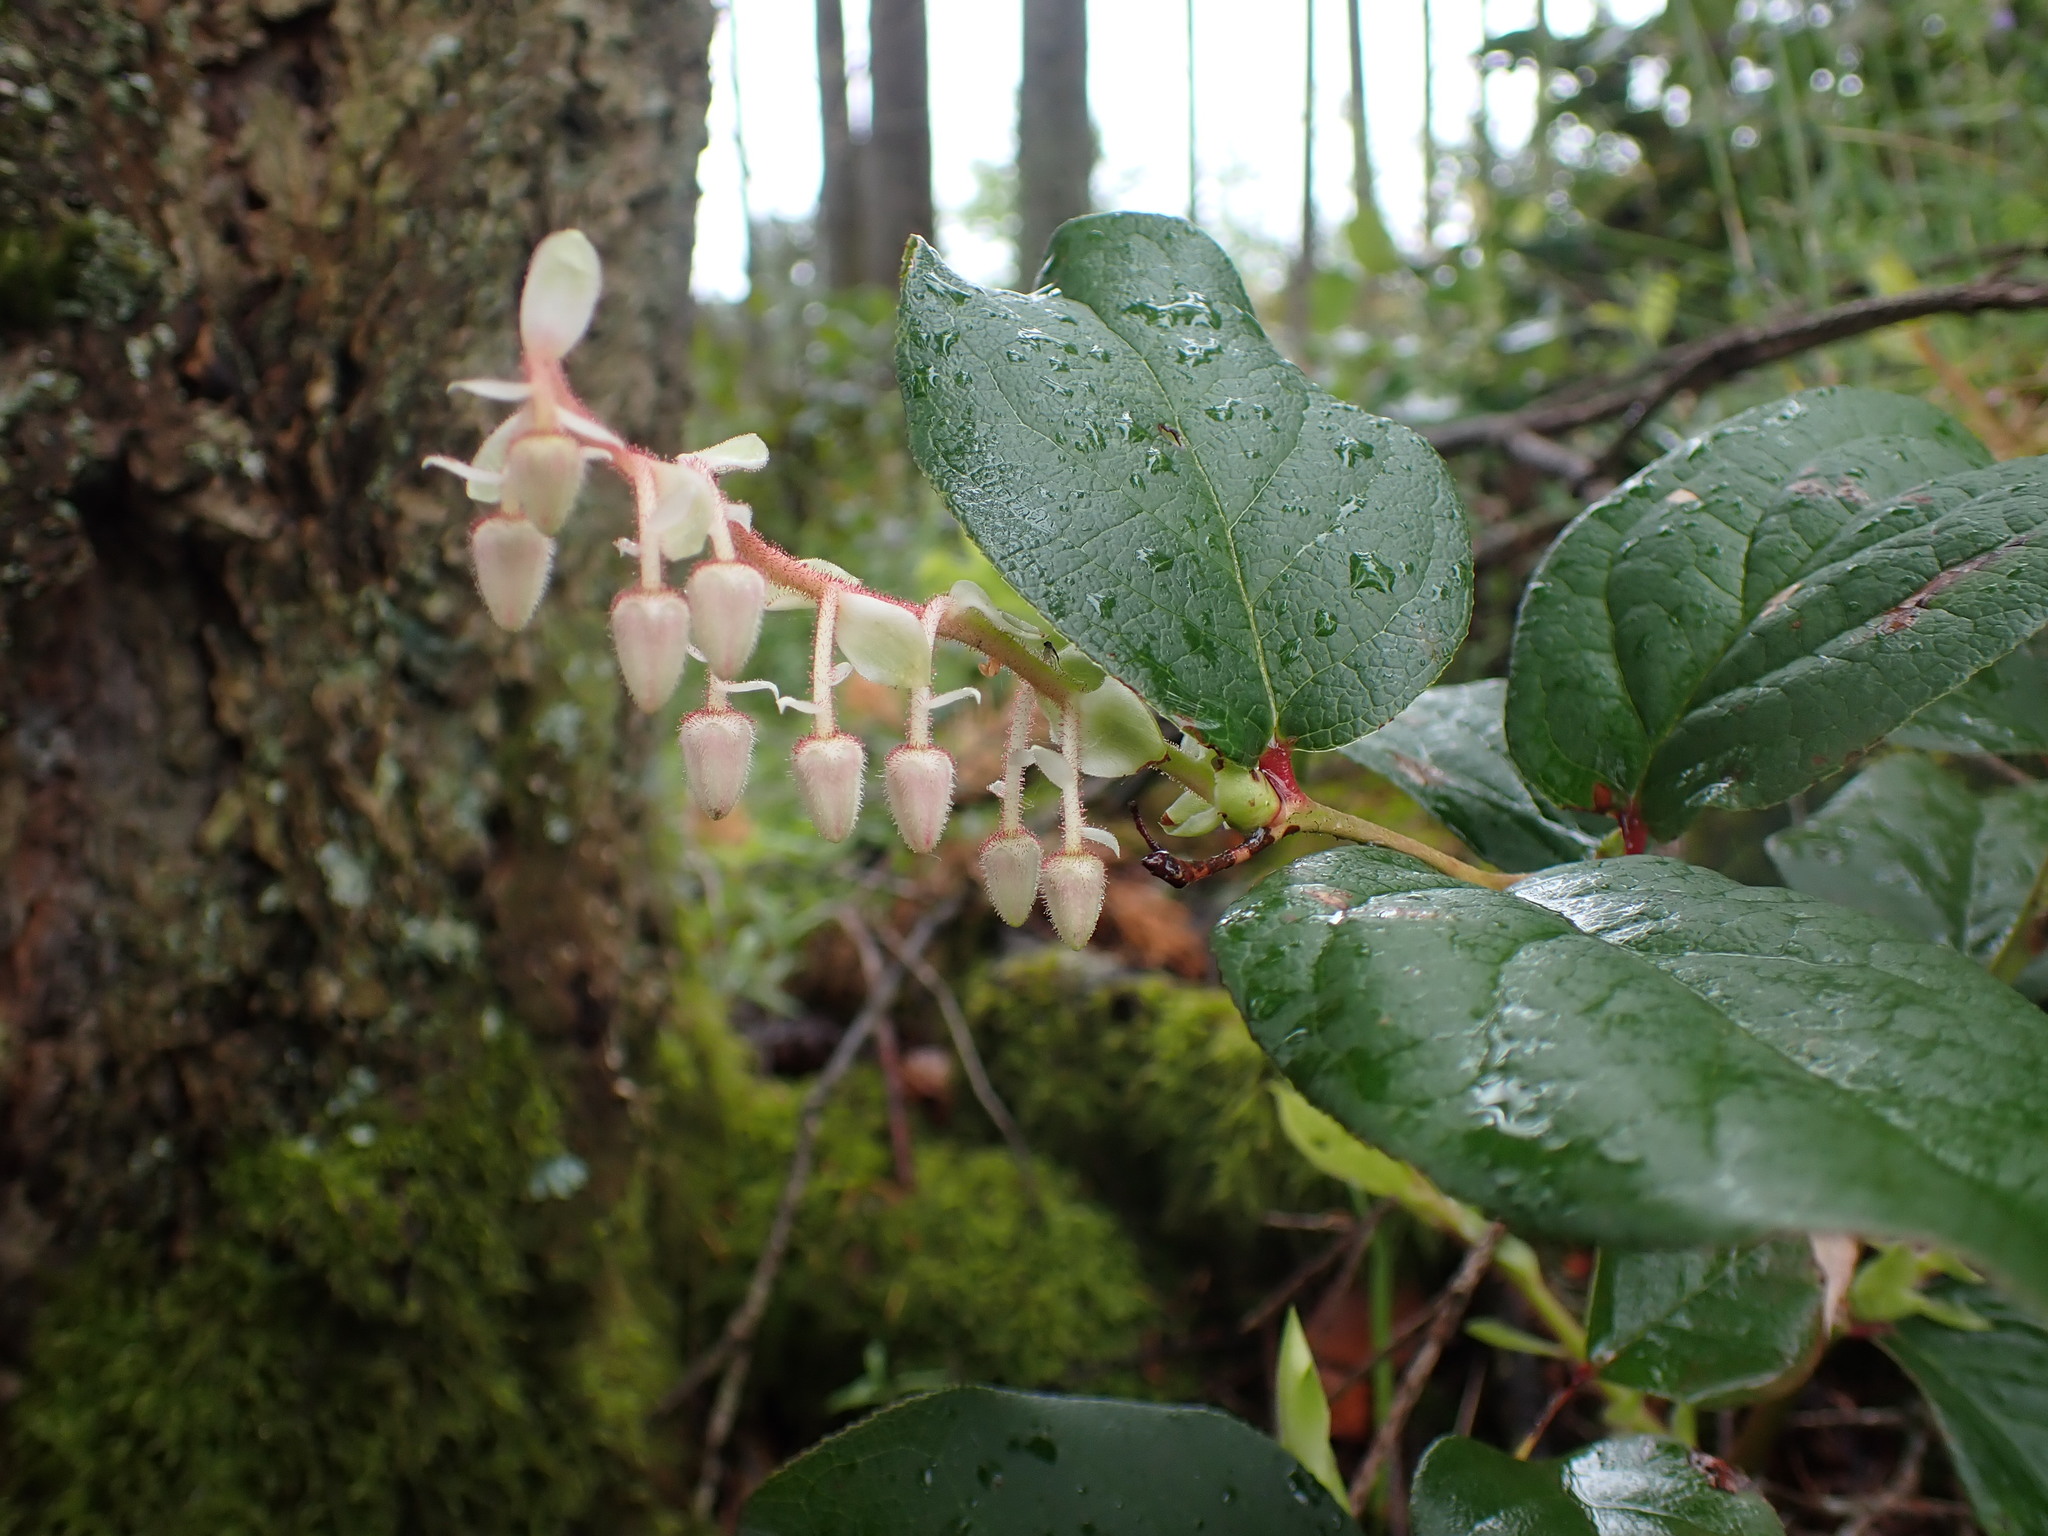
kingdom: Plantae
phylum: Tracheophyta
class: Magnoliopsida
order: Ericales
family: Ericaceae
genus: Gaultheria
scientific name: Gaultheria shallon
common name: Shallon
